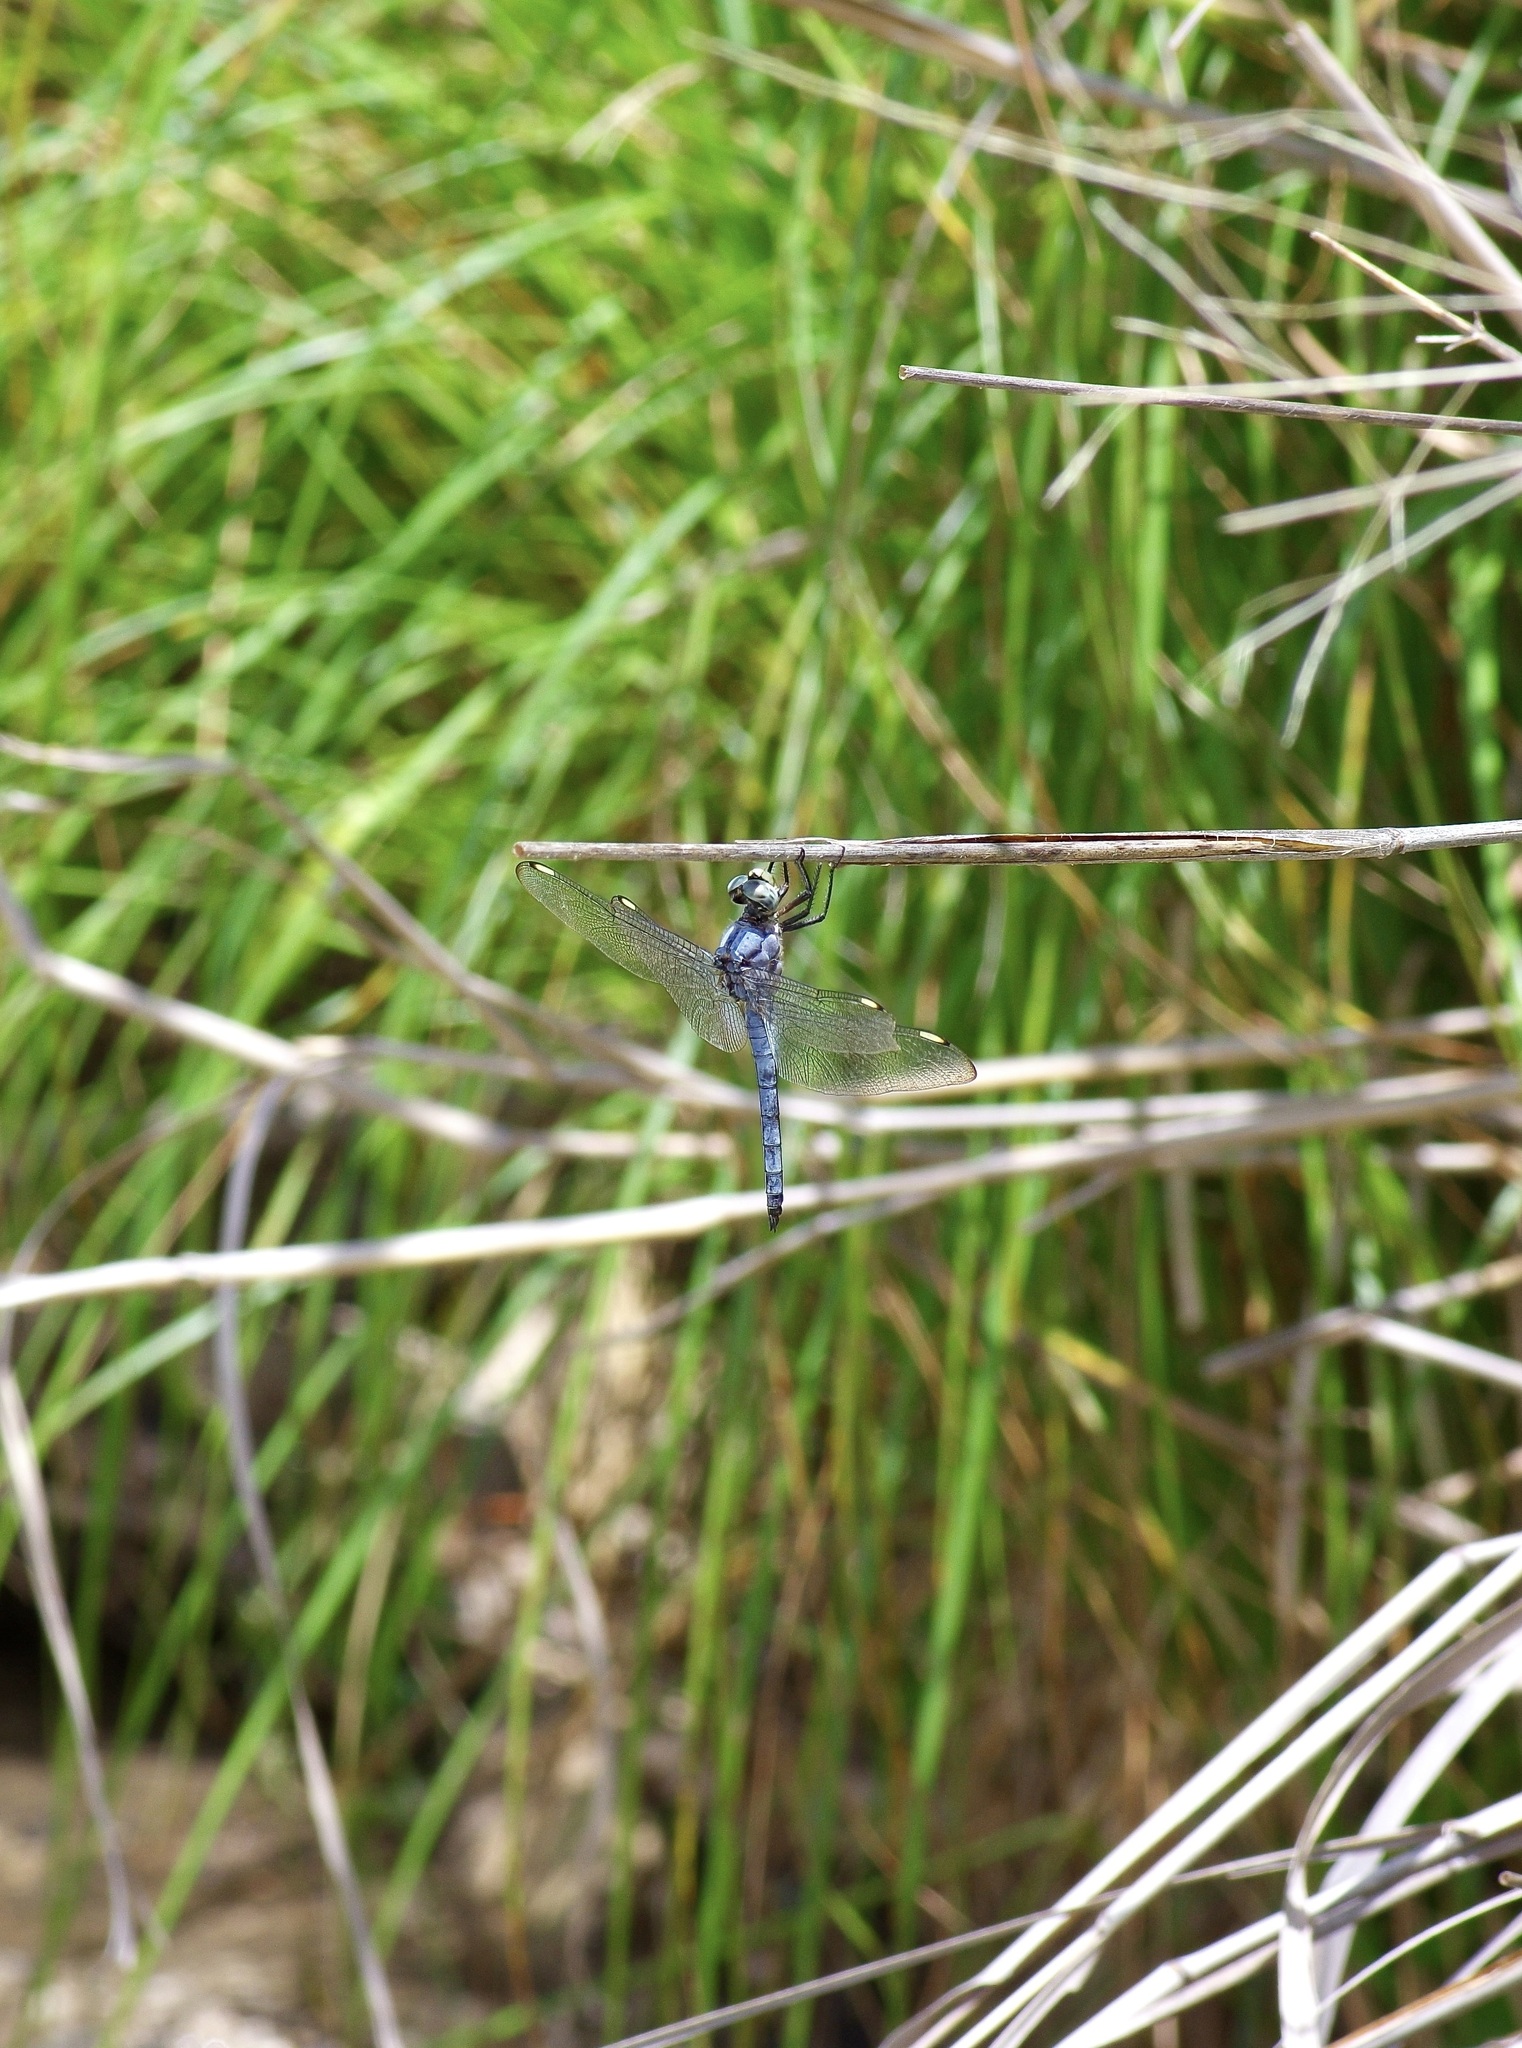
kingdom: Animalia
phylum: Arthropoda
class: Insecta
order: Odonata
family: Libellulidae
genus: Libellula
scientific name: Libellula comanche
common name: Comanche skimmer
